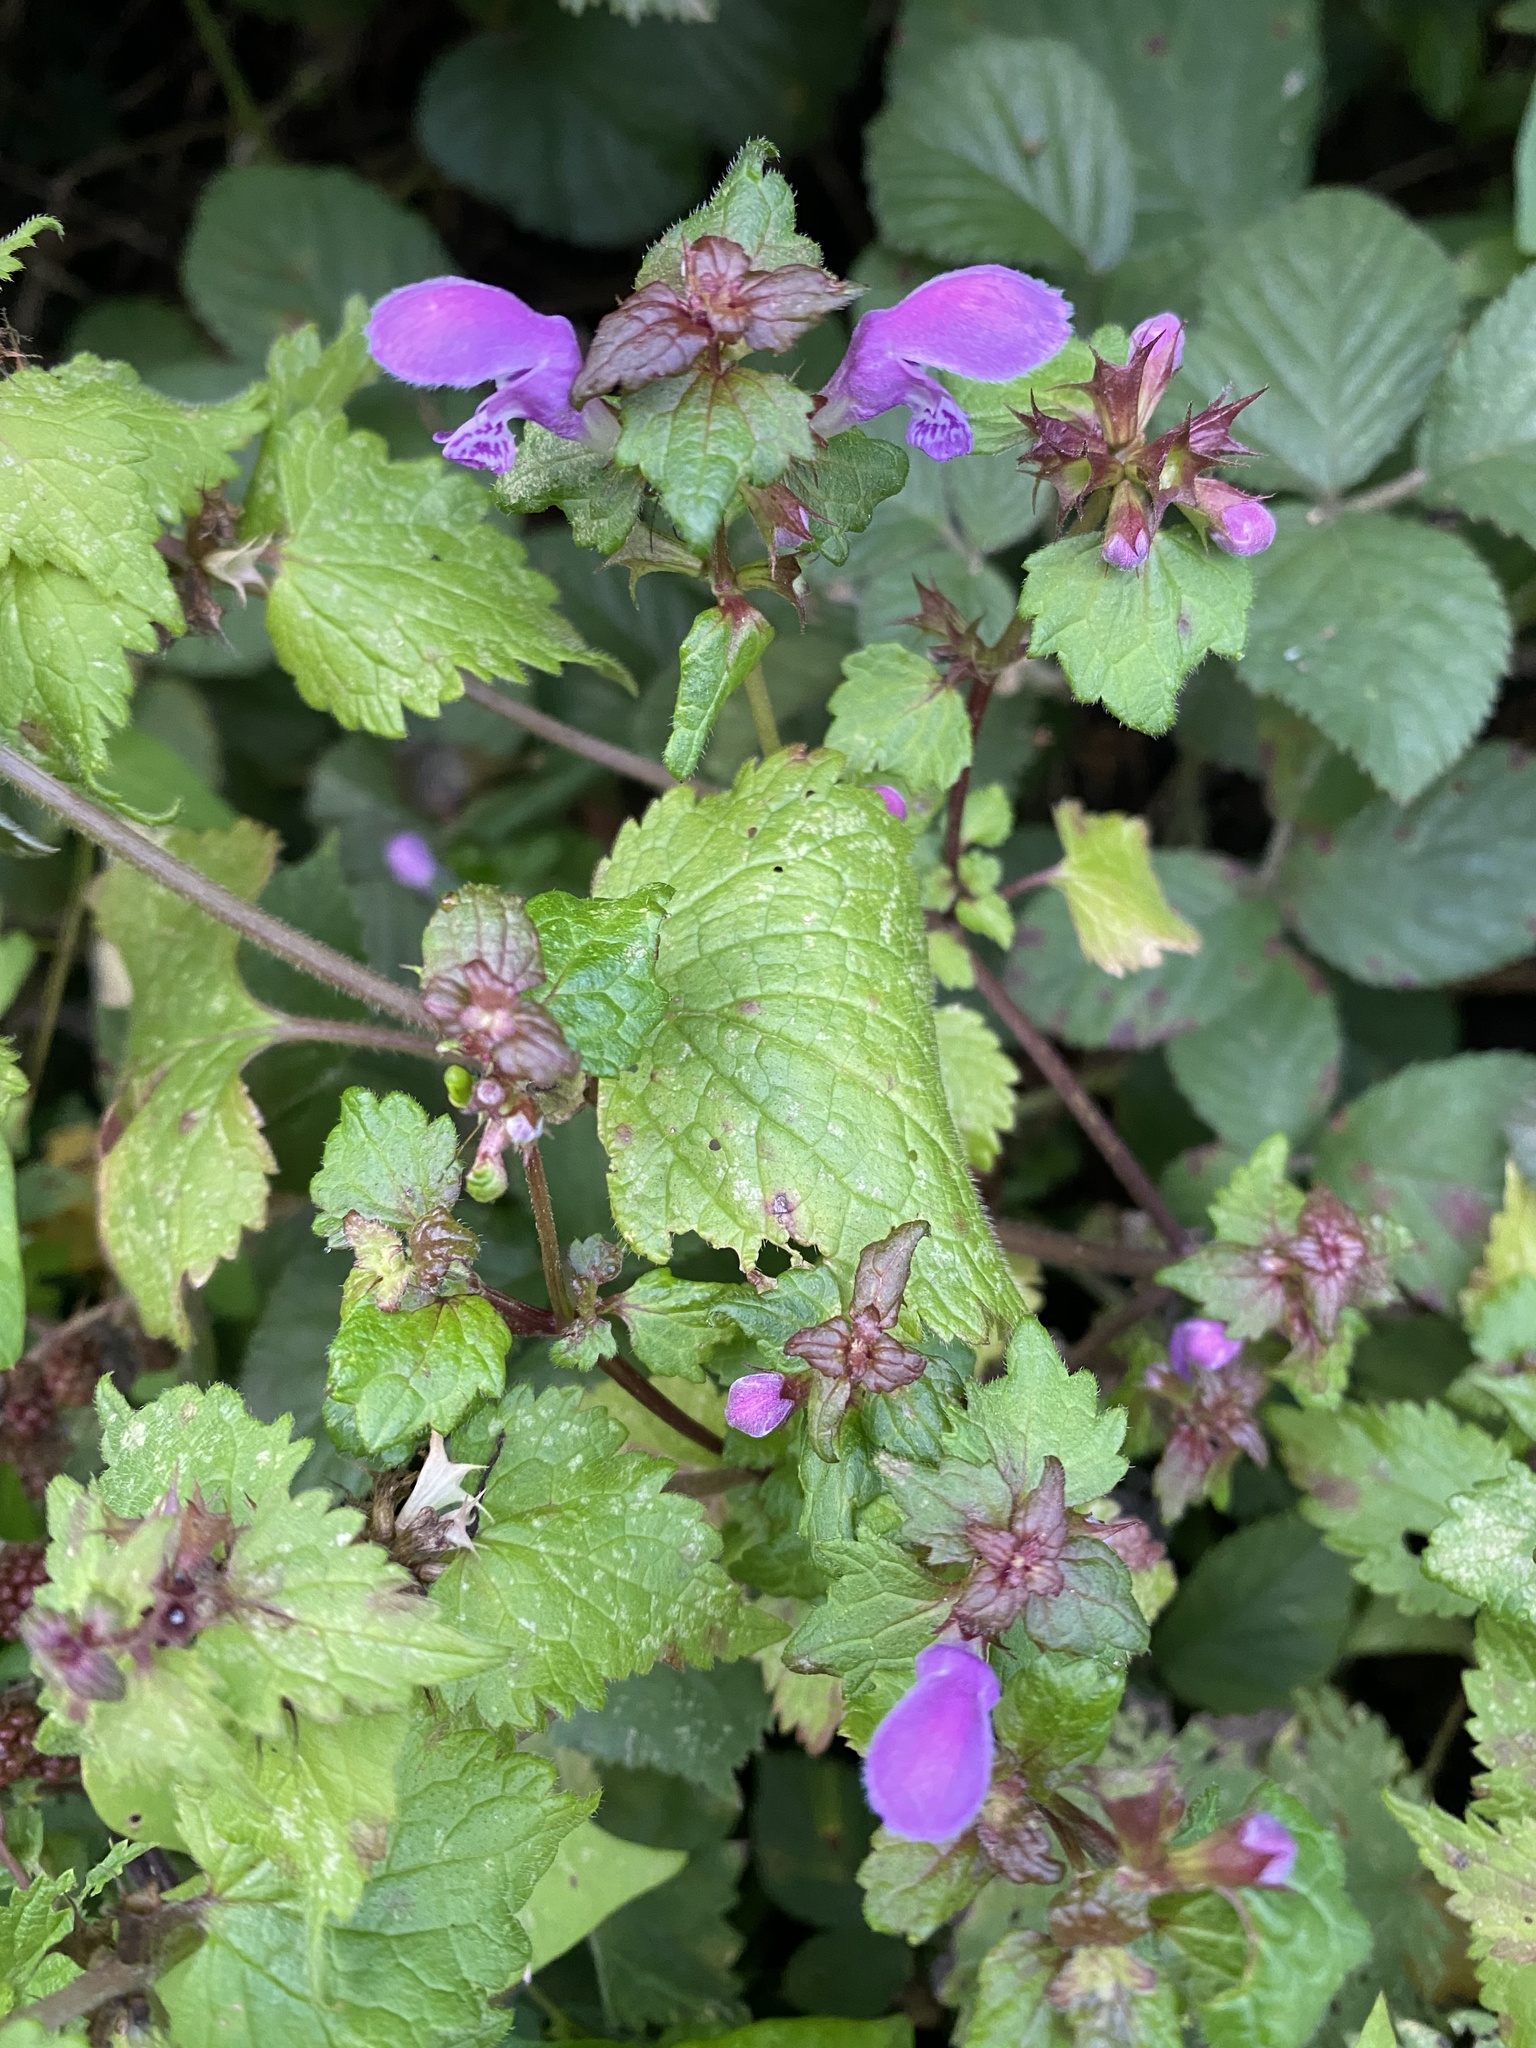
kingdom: Plantae
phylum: Tracheophyta
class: Magnoliopsida
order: Lamiales
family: Lamiaceae
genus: Lamium
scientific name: Lamium maculatum
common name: Spotted dead-nettle
